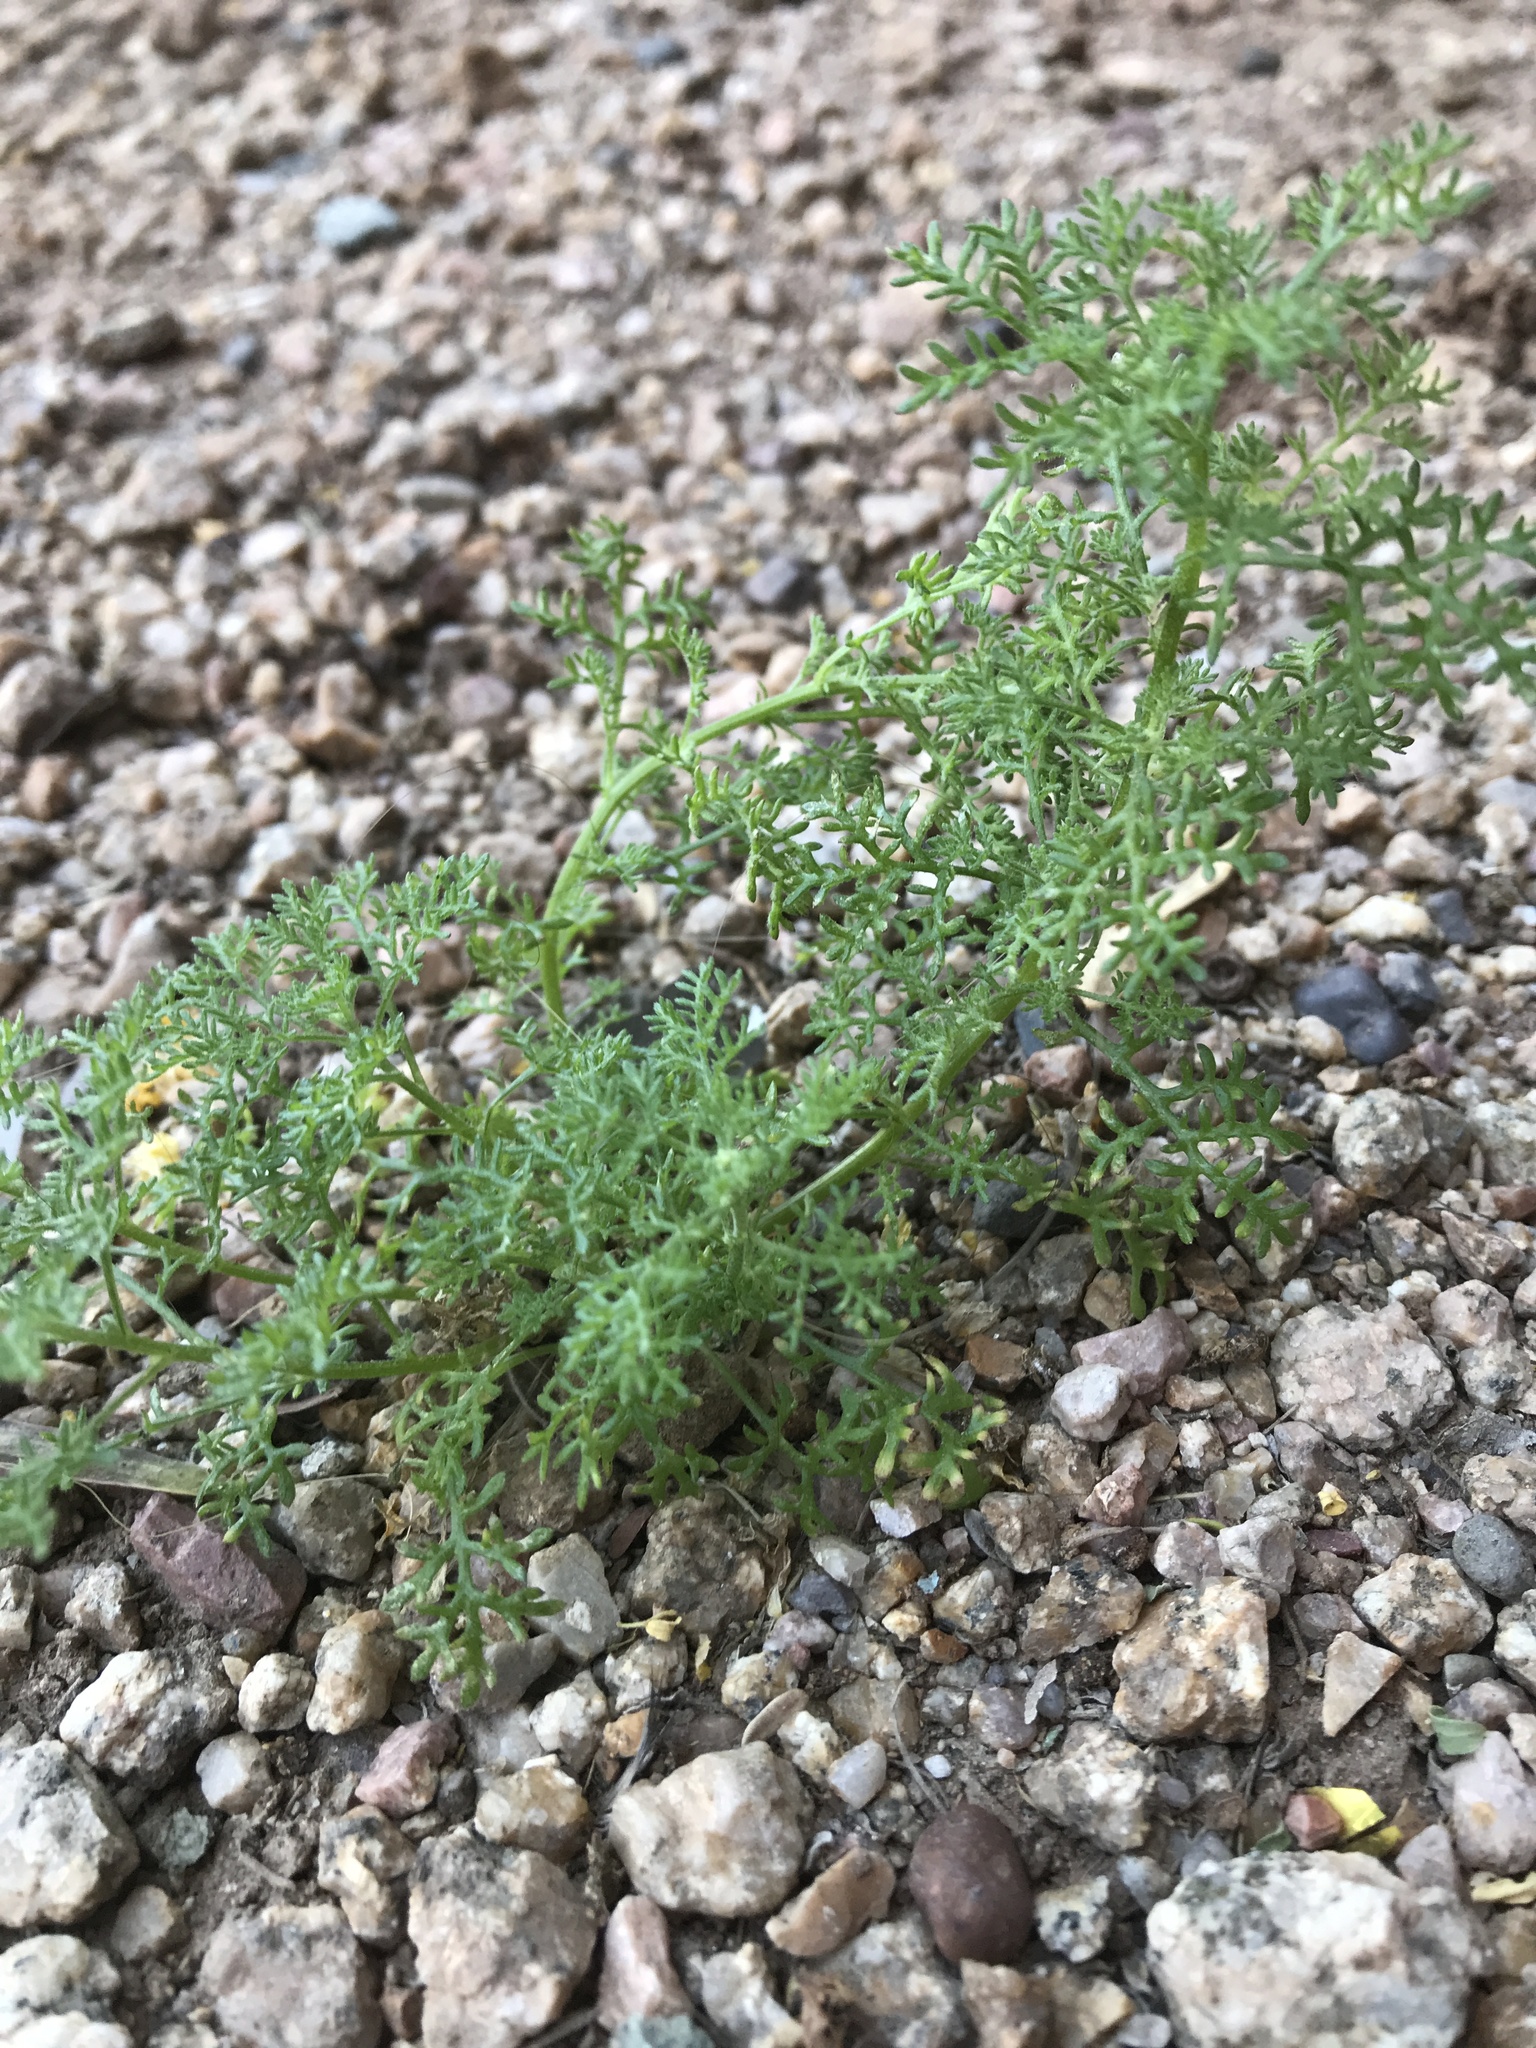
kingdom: Plantae
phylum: Tracheophyta
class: Magnoliopsida
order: Asterales
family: Asteraceae
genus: Oncosiphon
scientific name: Oncosiphon pilulifer
